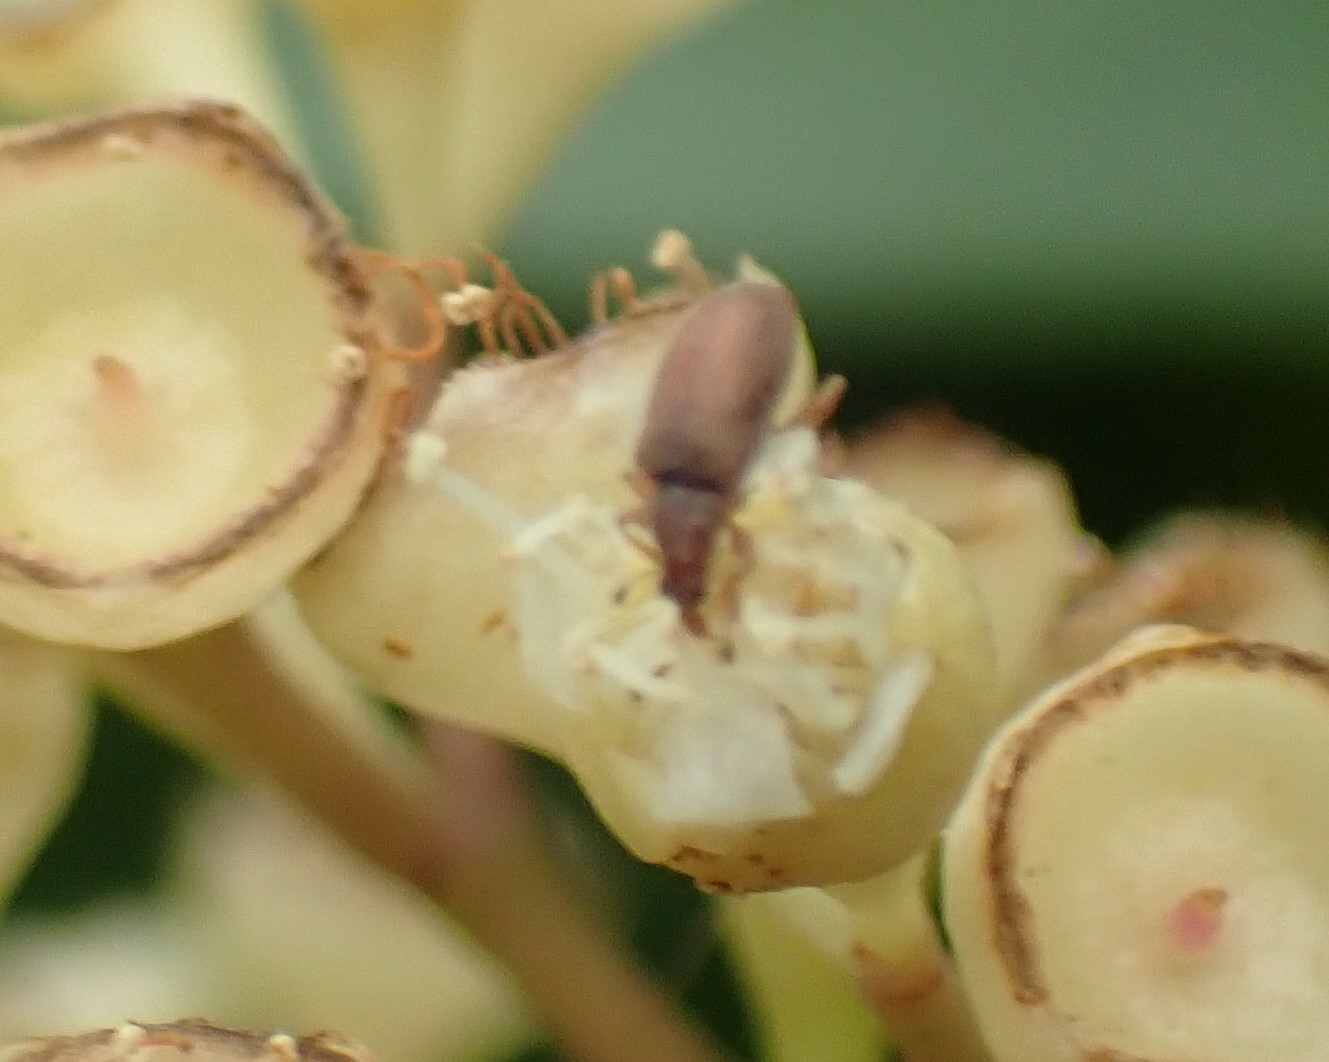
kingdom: Animalia
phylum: Arthropoda
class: Insecta
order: Coleoptera
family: Curculionidae
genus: Dyschaenium
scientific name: Dyschaenium flavum
